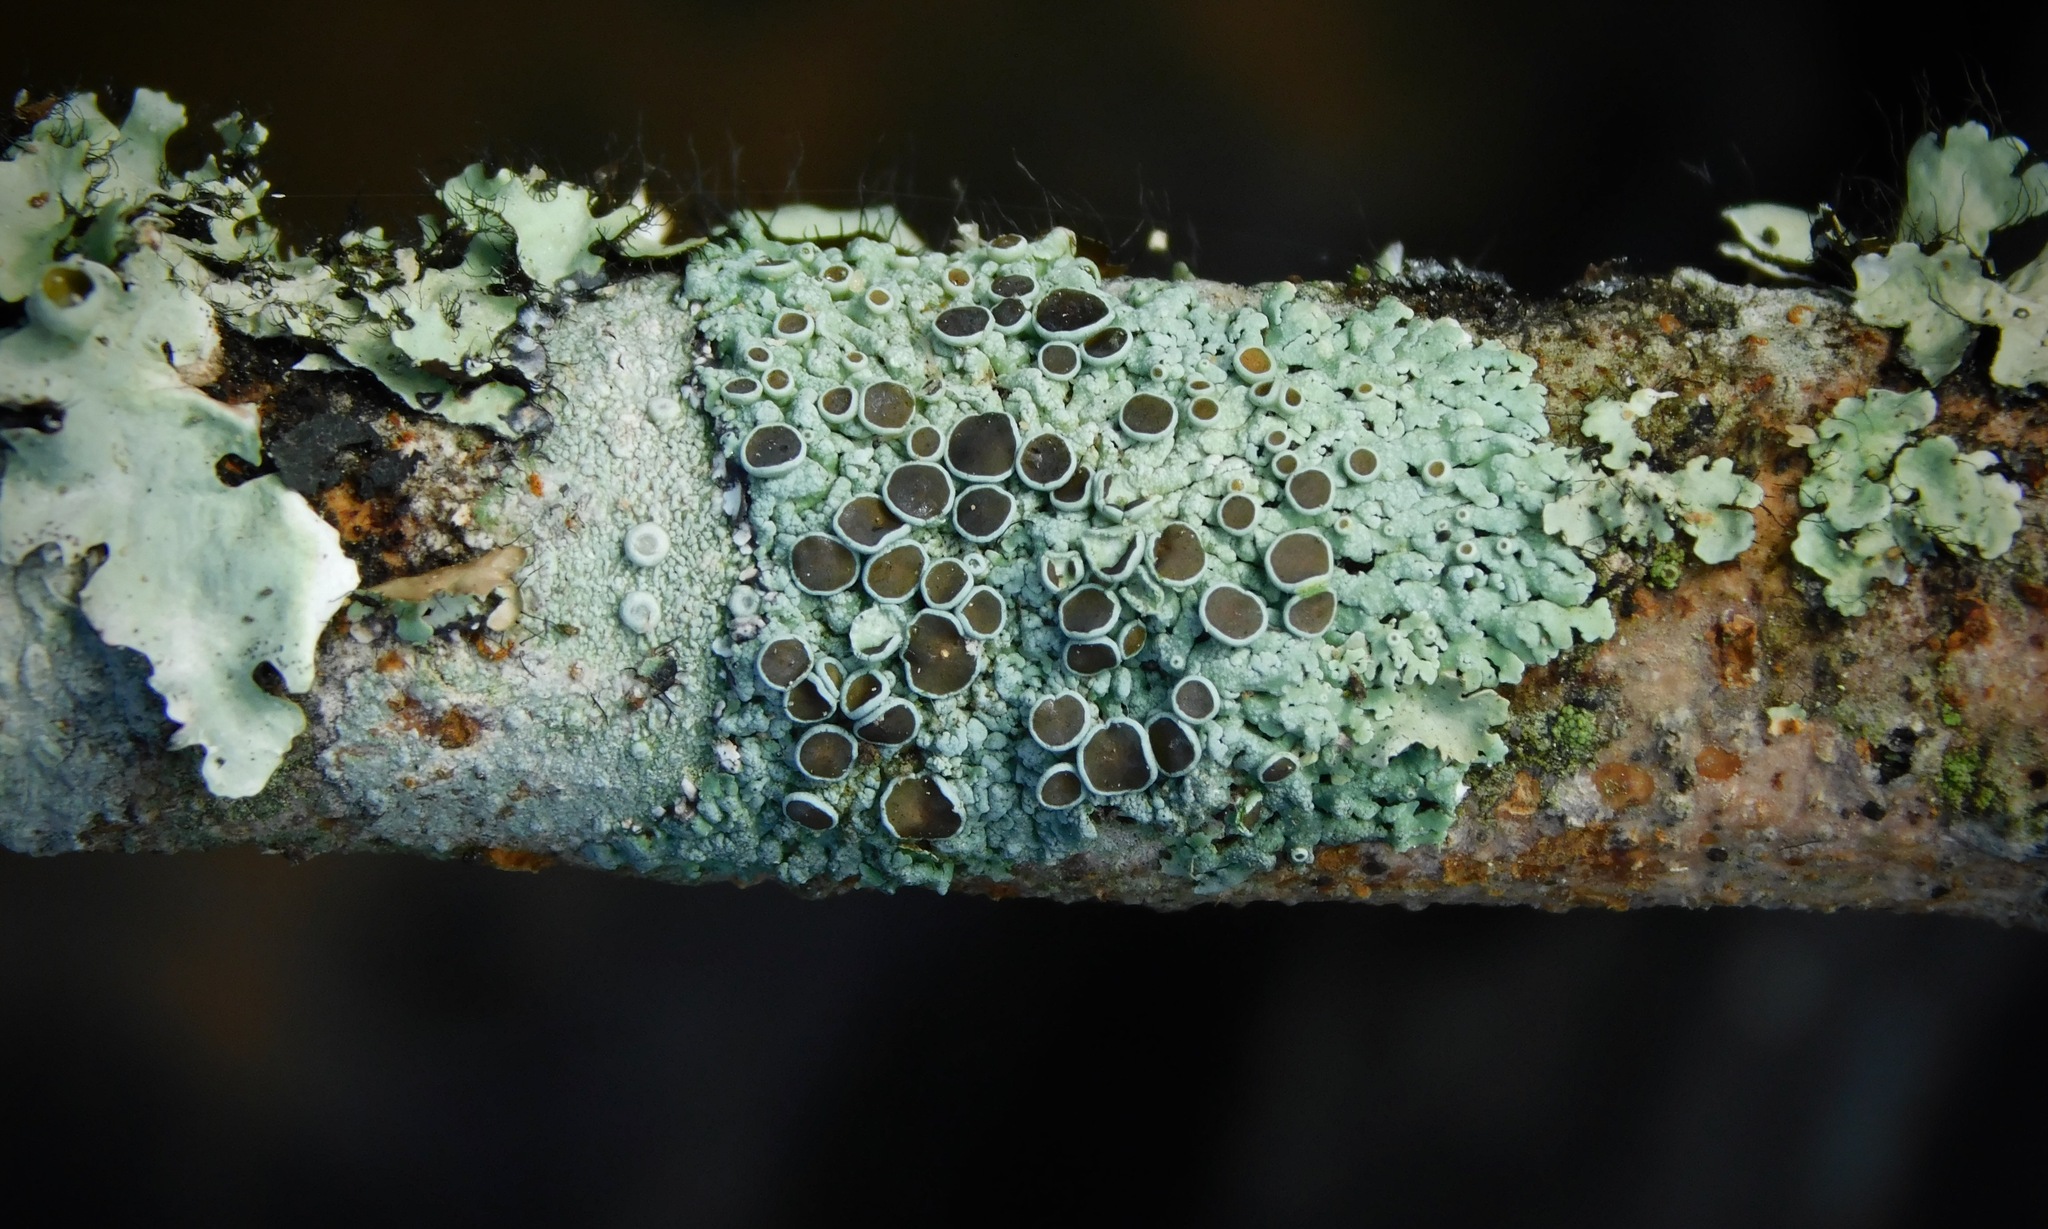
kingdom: Fungi
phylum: Ascomycota
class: Lecanoromycetes
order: Caliciales
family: Physciaceae
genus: Physcia
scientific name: Physcia stellaris
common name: Star rosette lichen
